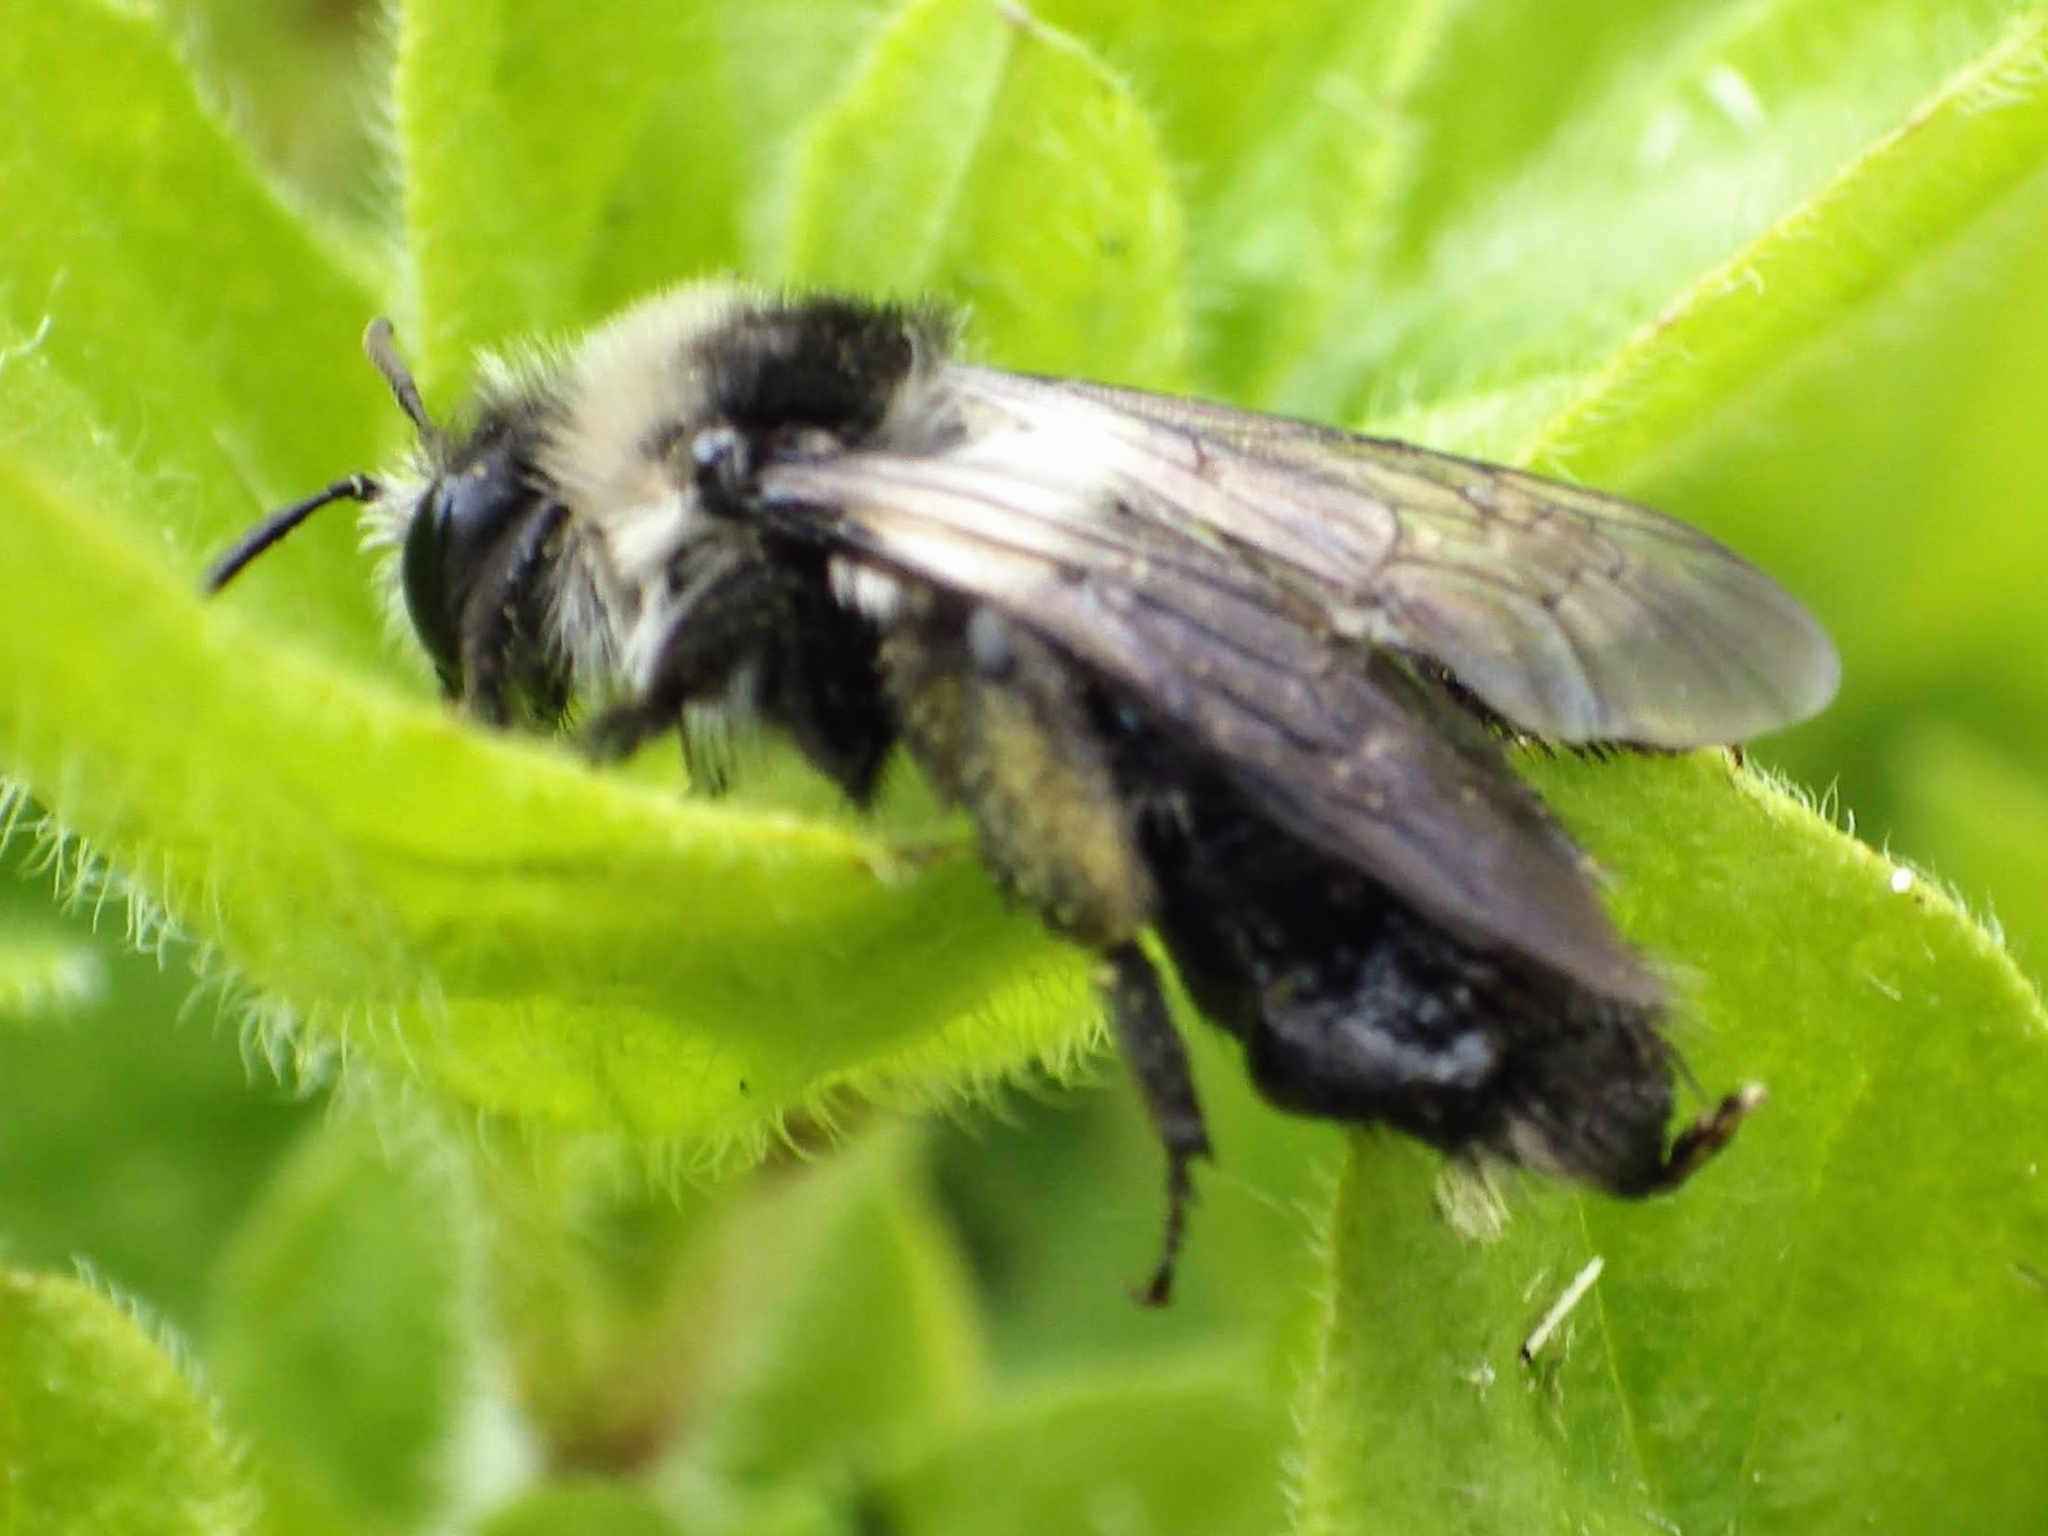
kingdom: Animalia
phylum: Arthropoda
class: Insecta
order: Hymenoptera
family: Andrenidae
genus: Andrena
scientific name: Andrena cineraria
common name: Ashy mining bee
